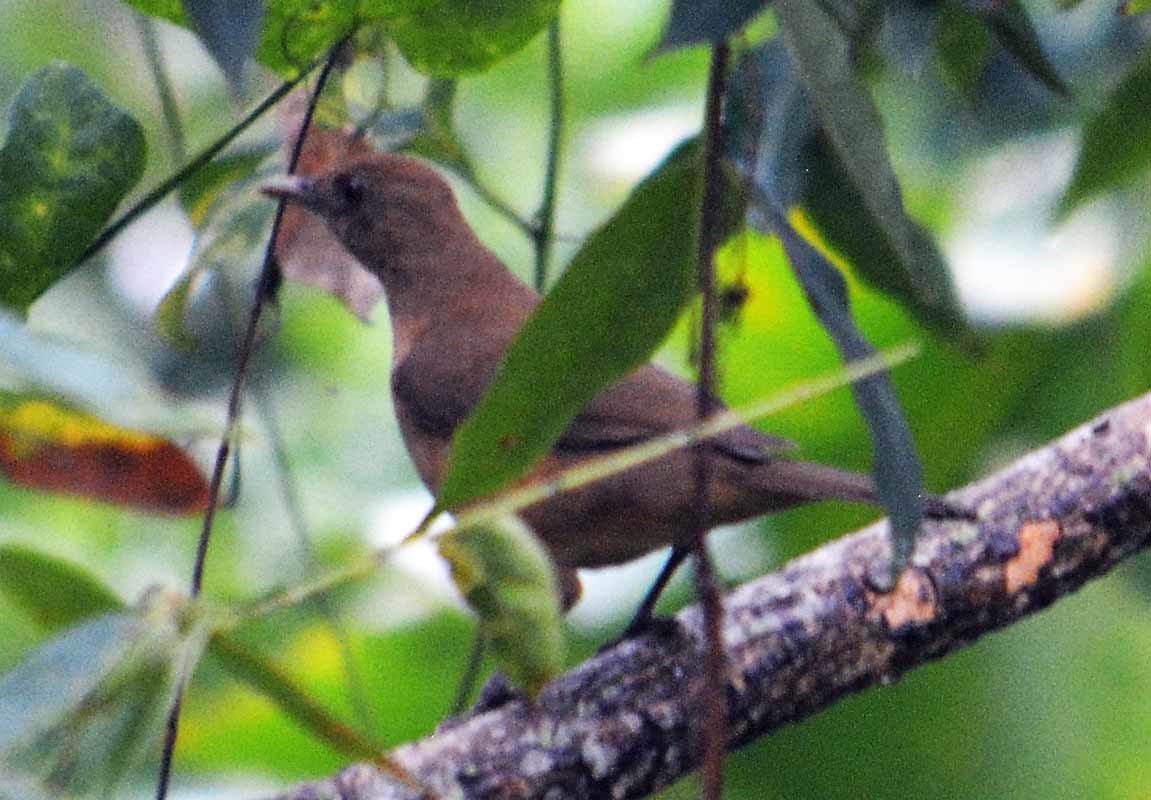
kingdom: Animalia
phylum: Chordata
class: Aves
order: Passeriformes
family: Turdidae
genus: Turdus
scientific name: Turdus grayi
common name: Clay-colored thrush
